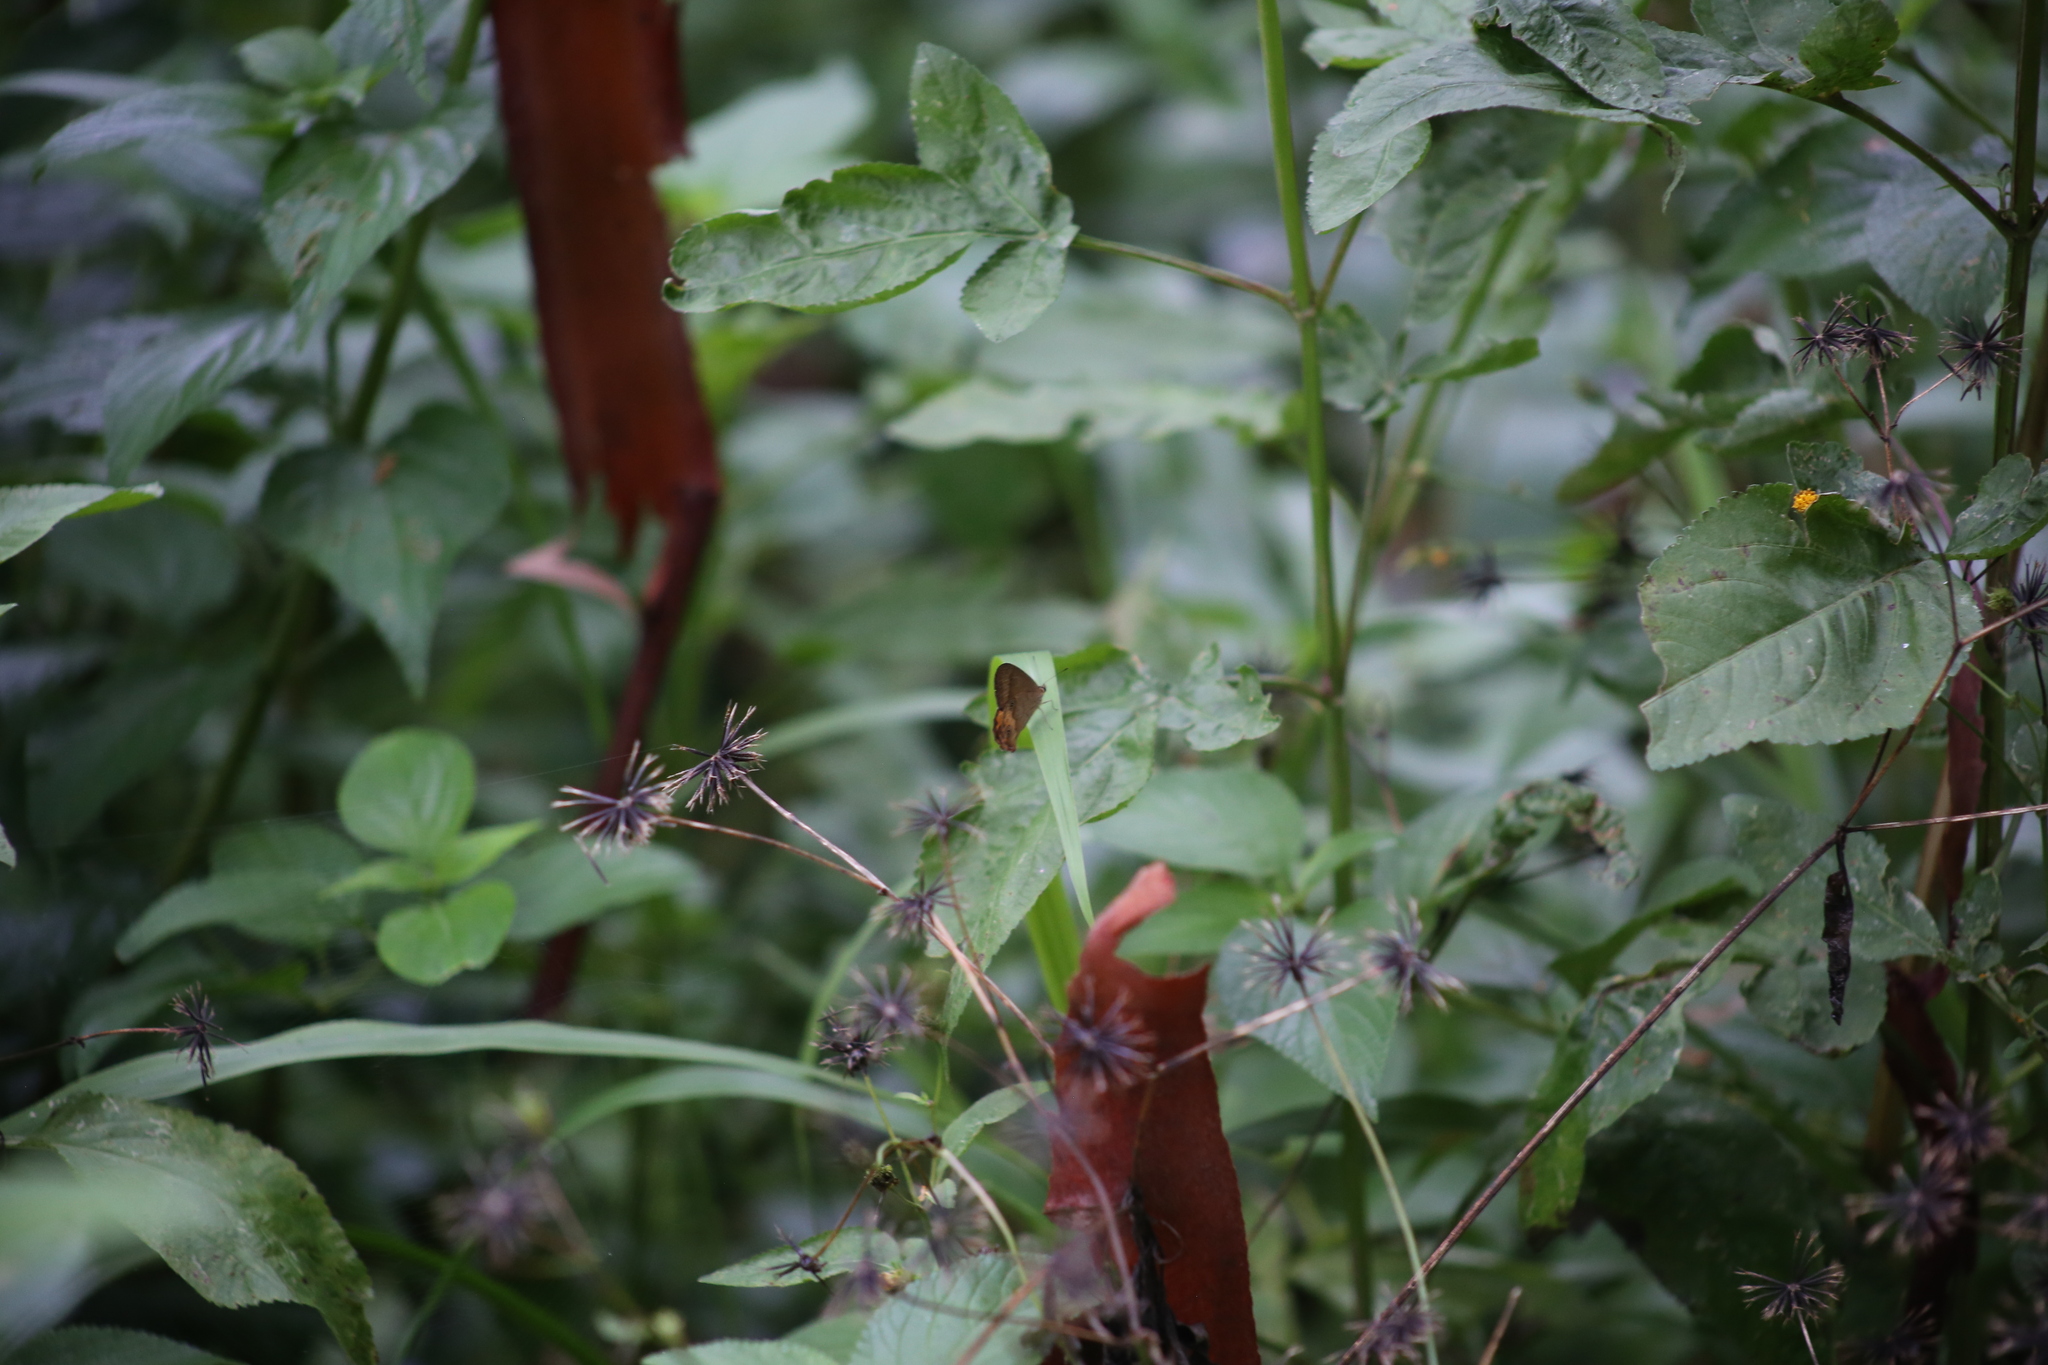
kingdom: Animalia
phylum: Arthropoda
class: Insecta
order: Lepidoptera
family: Nymphalidae
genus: Hypocysta
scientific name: Hypocysta metirius
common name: Brown ringlet
